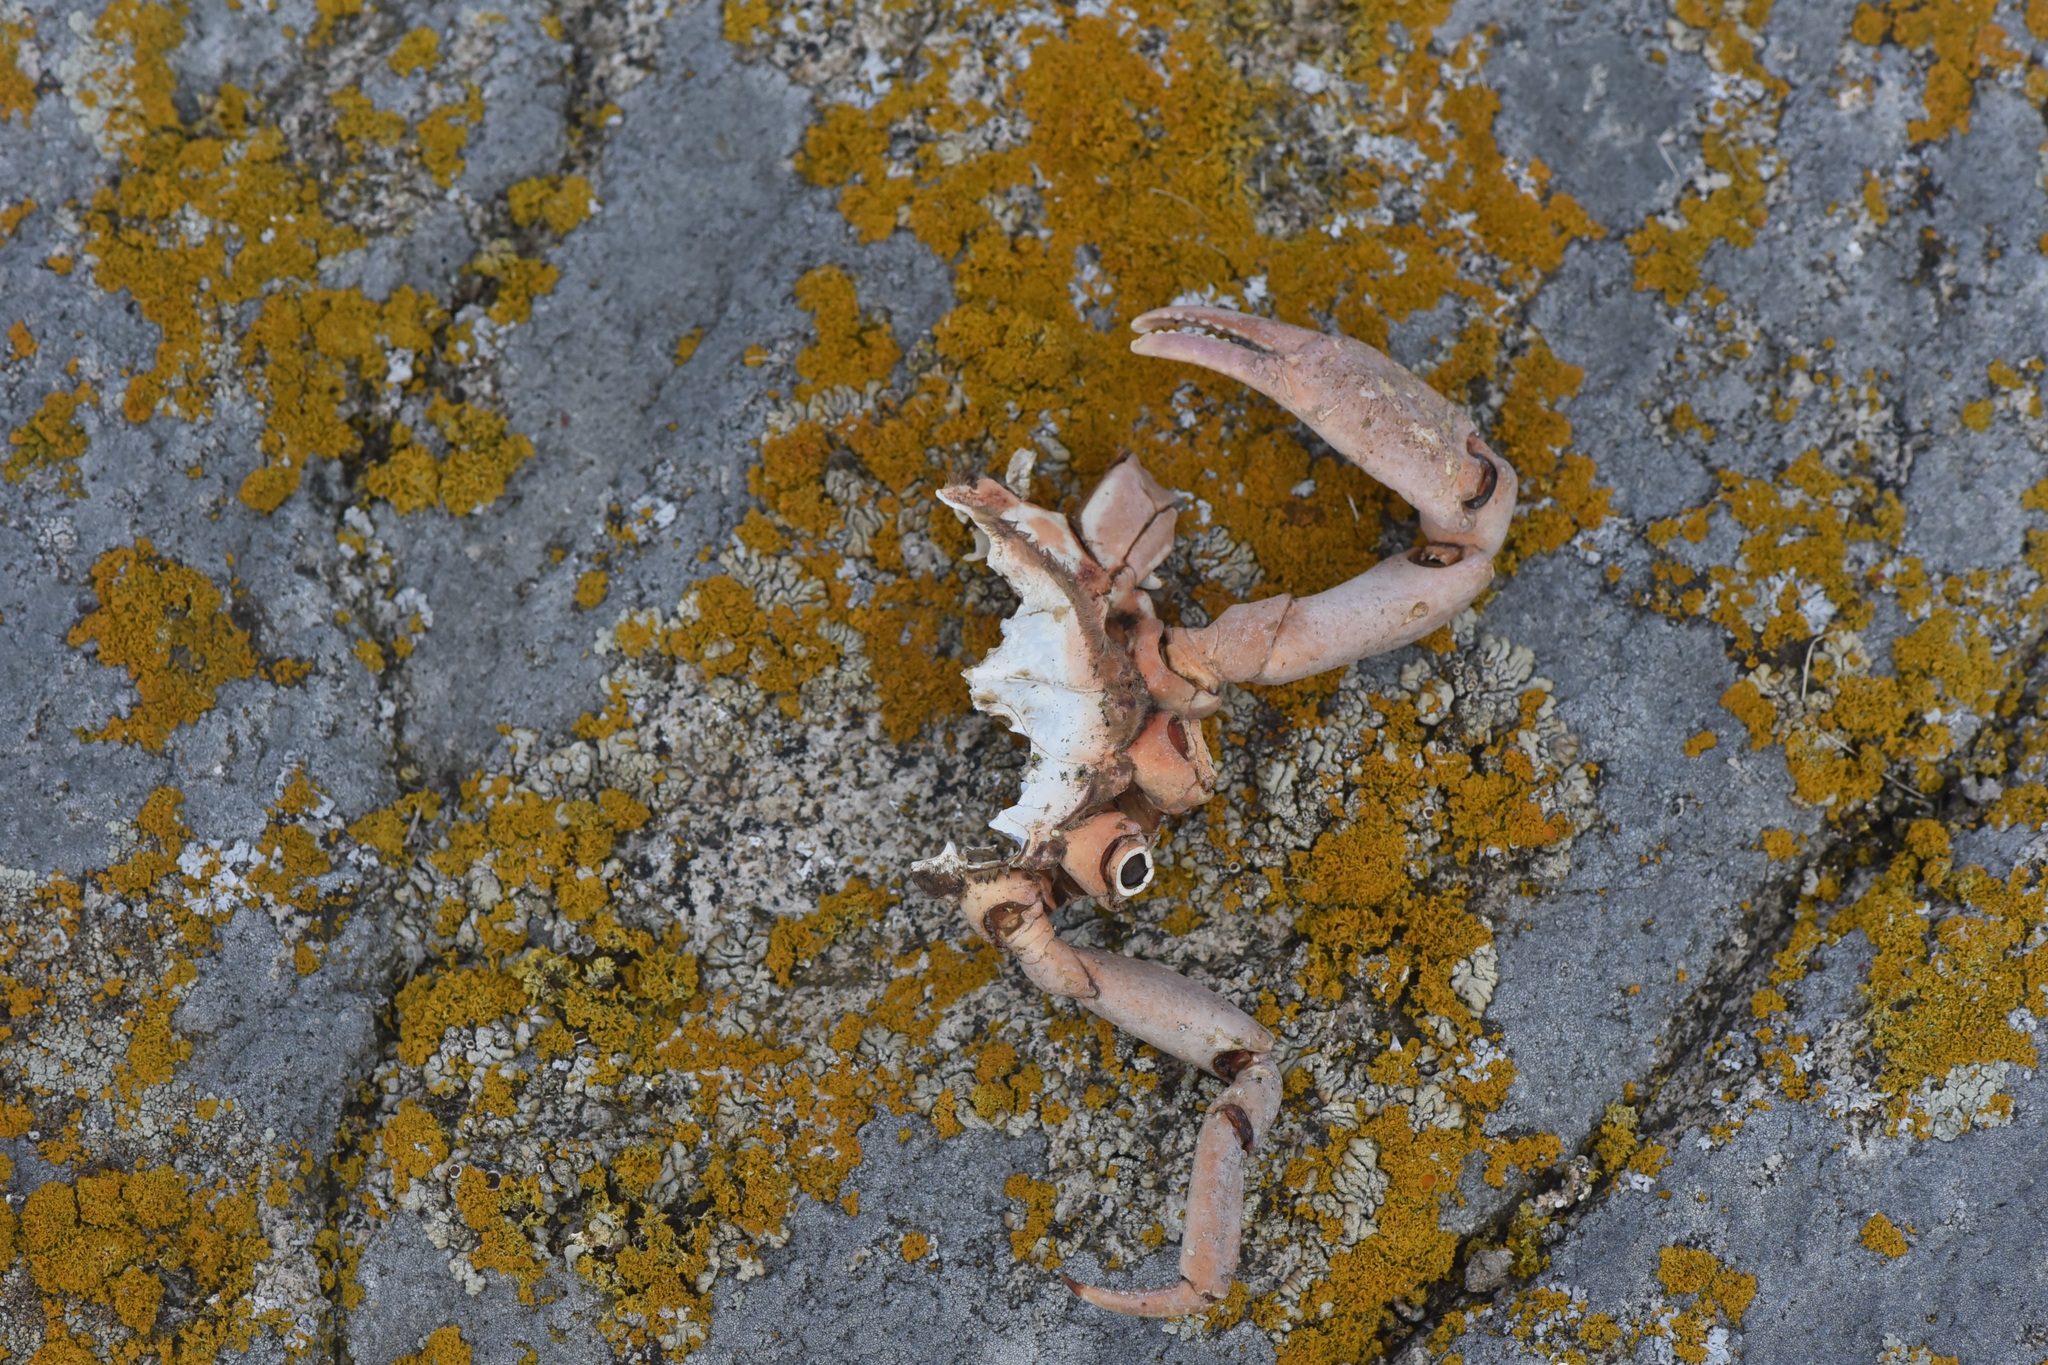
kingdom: Animalia
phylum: Arthropoda
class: Malacostraca
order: Decapoda
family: Epialtidae
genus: Pugettia
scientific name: Pugettia producta
